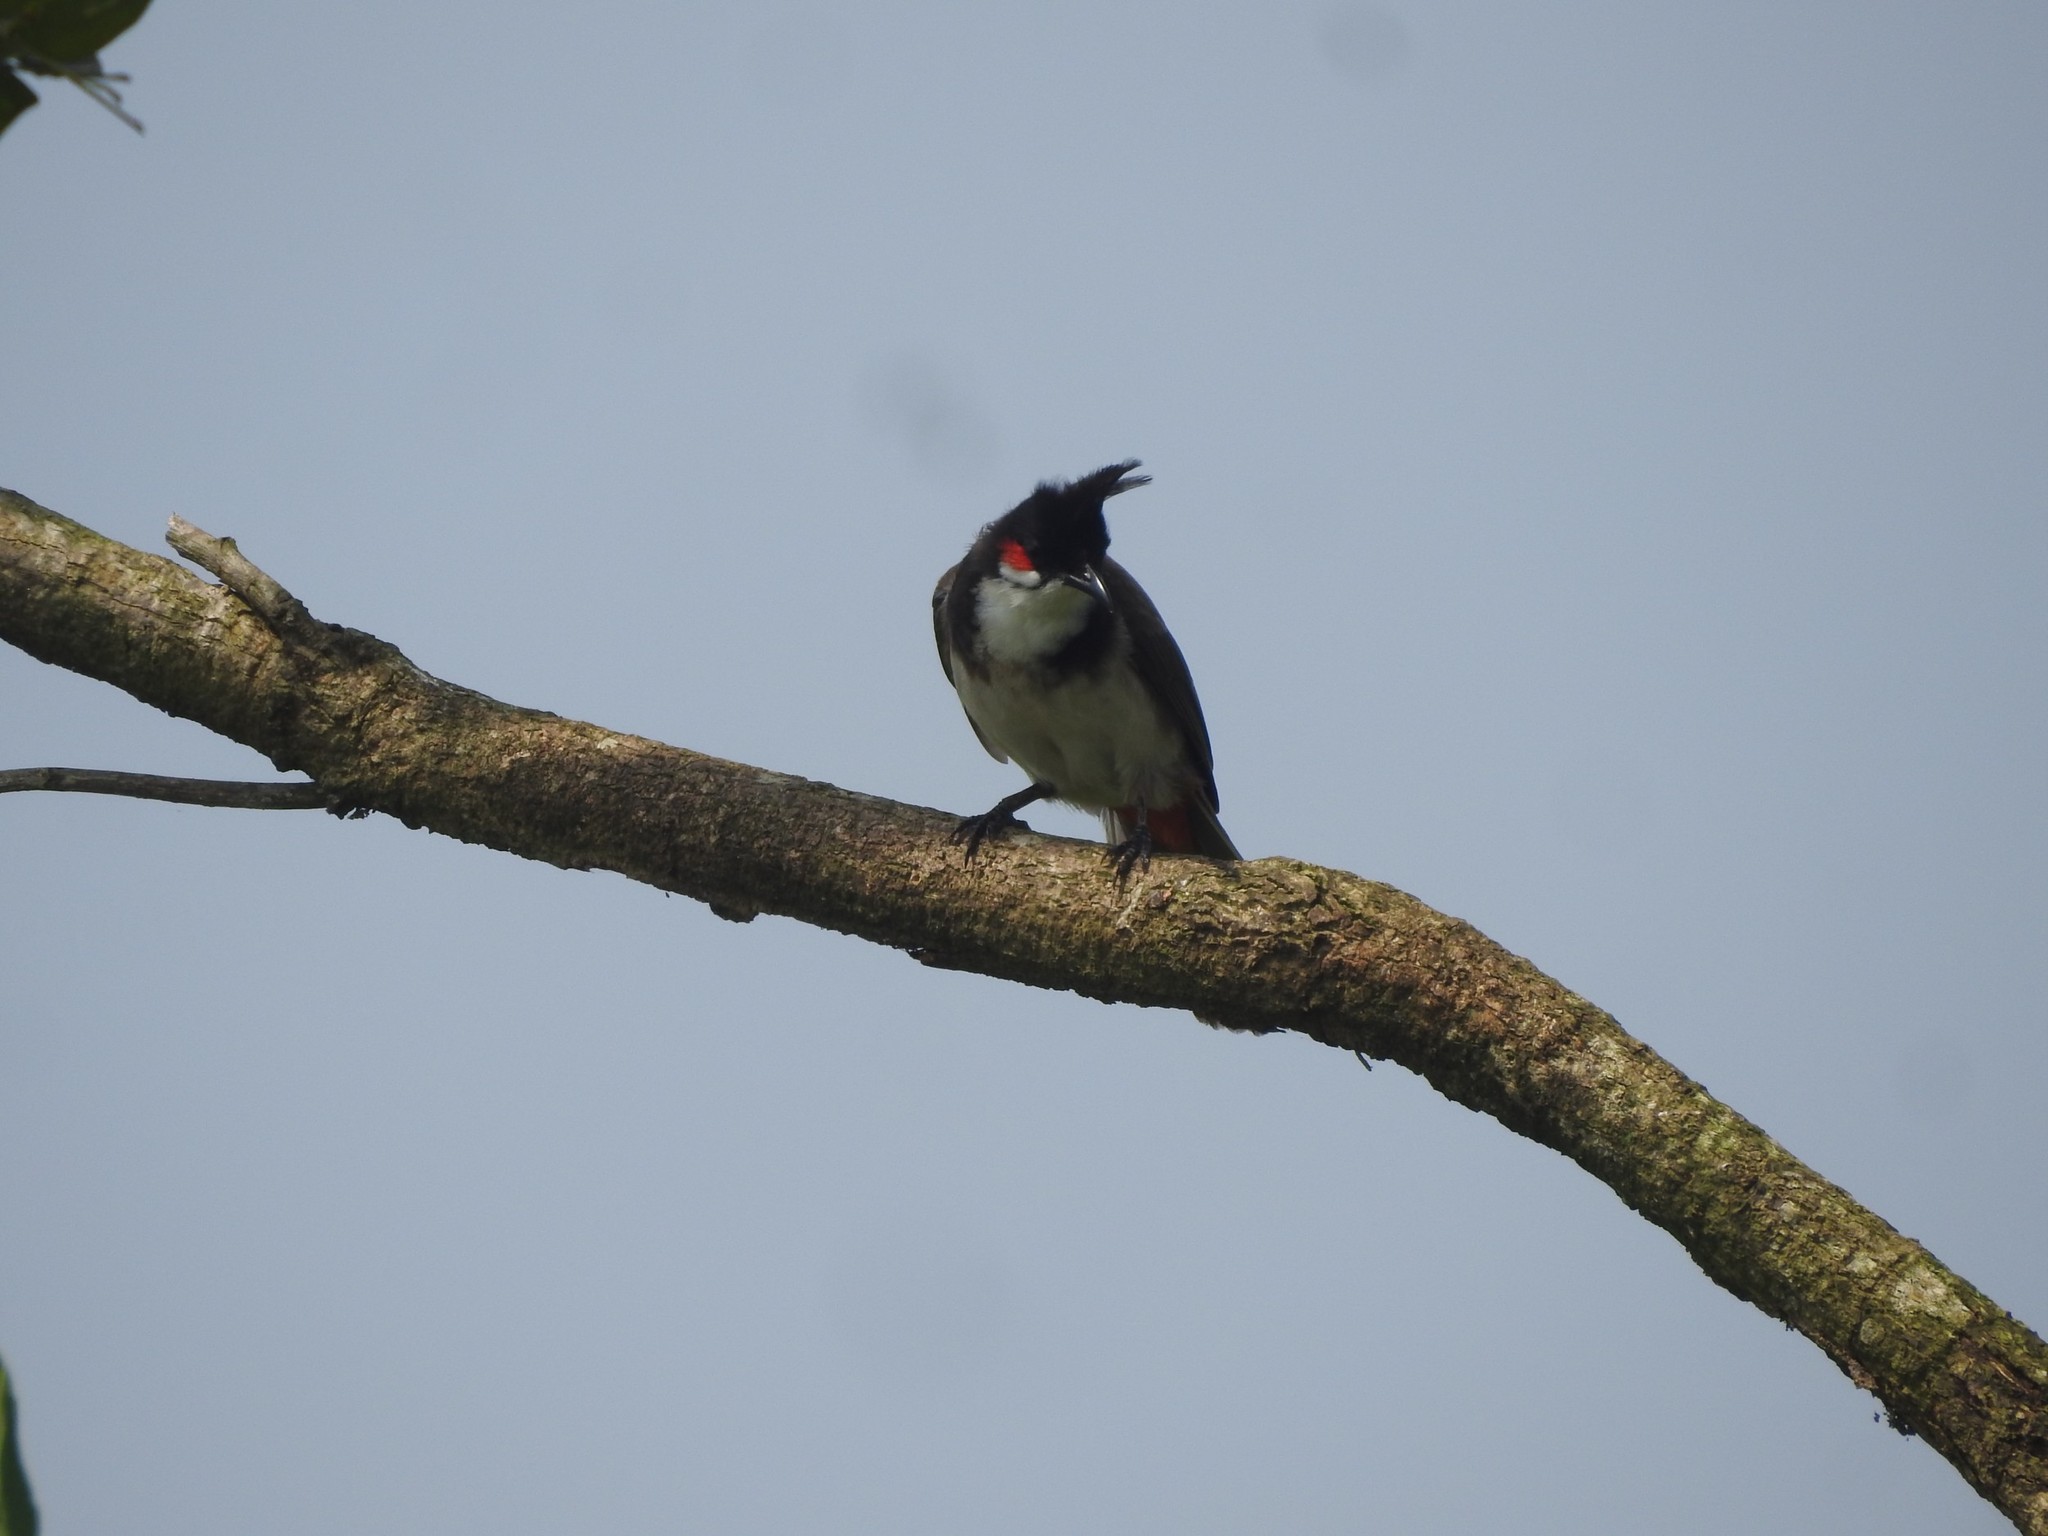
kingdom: Animalia
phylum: Chordata
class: Aves
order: Passeriformes
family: Pycnonotidae
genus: Pycnonotus
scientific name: Pycnonotus jocosus
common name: Red-whiskered bulbul
